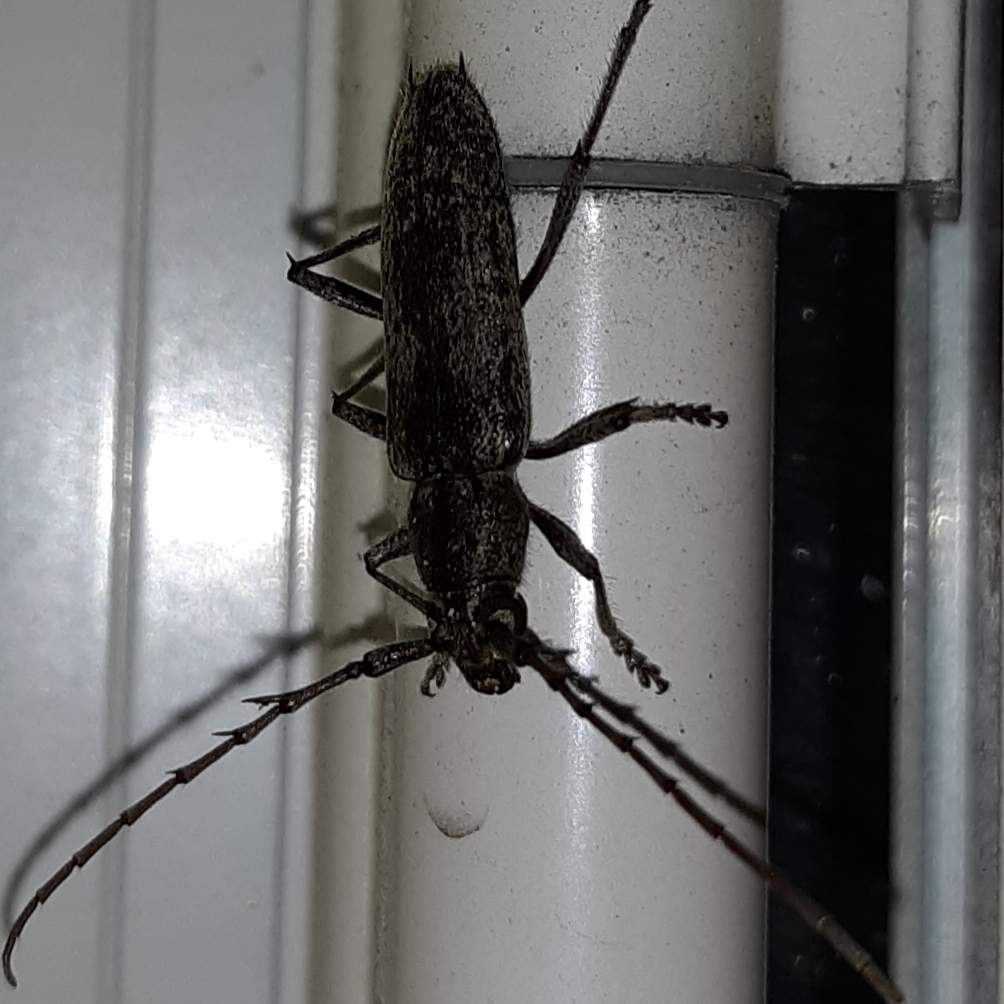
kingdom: Animalia
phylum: Arthropoda
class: Insecta
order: Coleoptera
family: Cerambycidae
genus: Elaphidion
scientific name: Elaphidion mucronatum
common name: Spined oak borer
